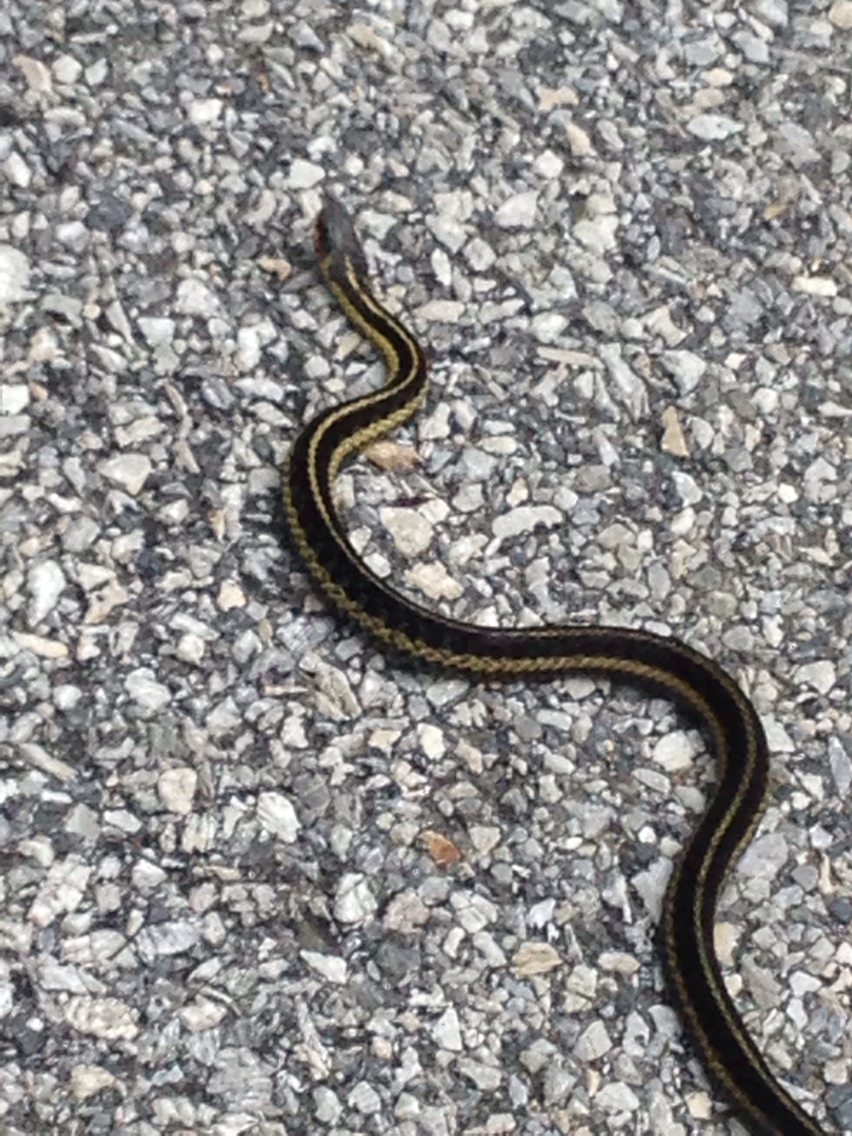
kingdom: Animalia
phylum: Chordata
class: Squamata
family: Colubridae
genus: Thamnophis
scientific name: Thamnophis sirtalis
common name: Common garter snake
